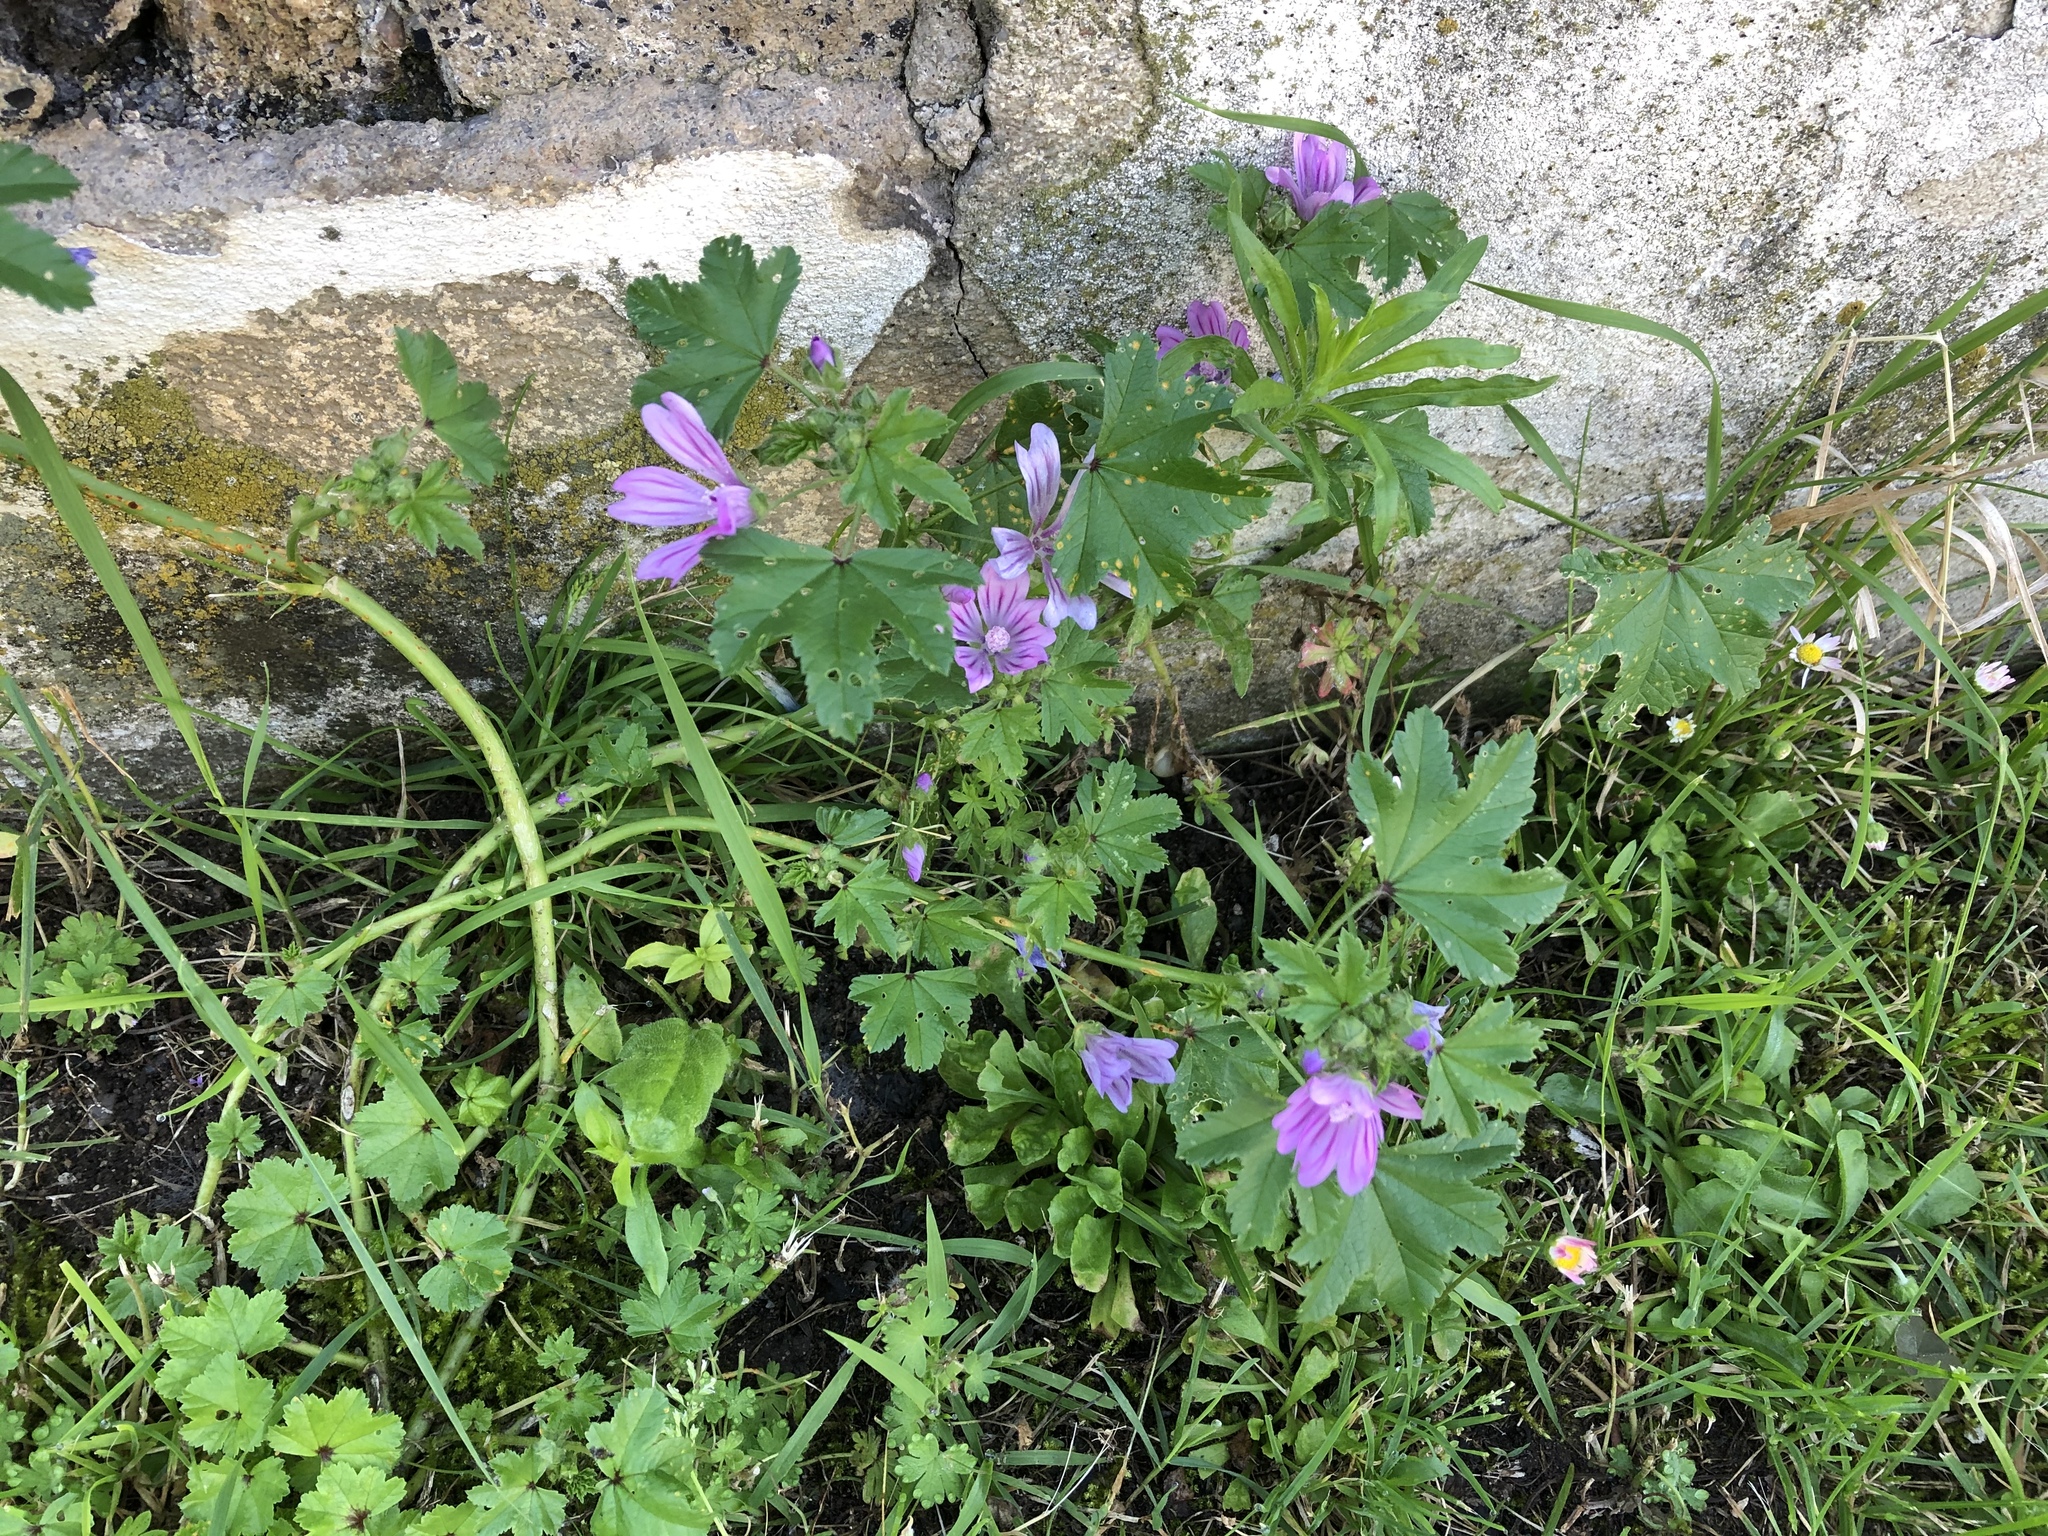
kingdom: Plantae
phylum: Tracheophyta
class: Magnoliopsida
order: Malvales
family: Malvaceae
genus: Malva
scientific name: Malva sylvestris
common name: Common mallow
